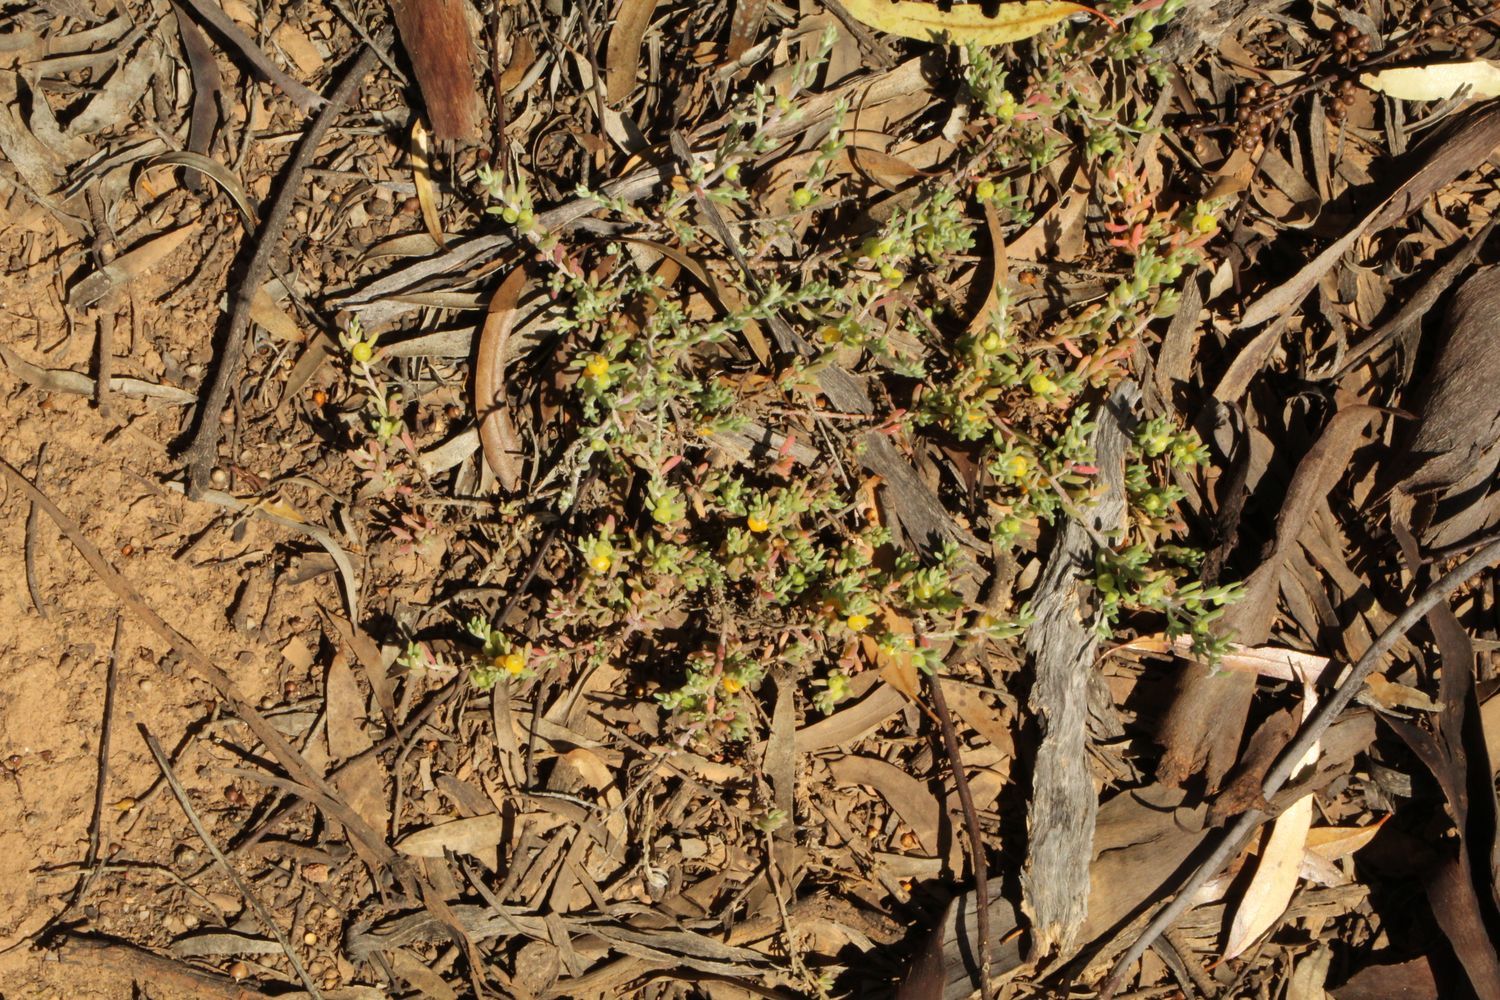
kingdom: Plantae
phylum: Tracheophyta
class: Magnoliopsida
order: Caryophyllales
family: Amaranthaceae
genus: Enchylaena
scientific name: Enchylaena tomentosa
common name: Ruby saltbush
